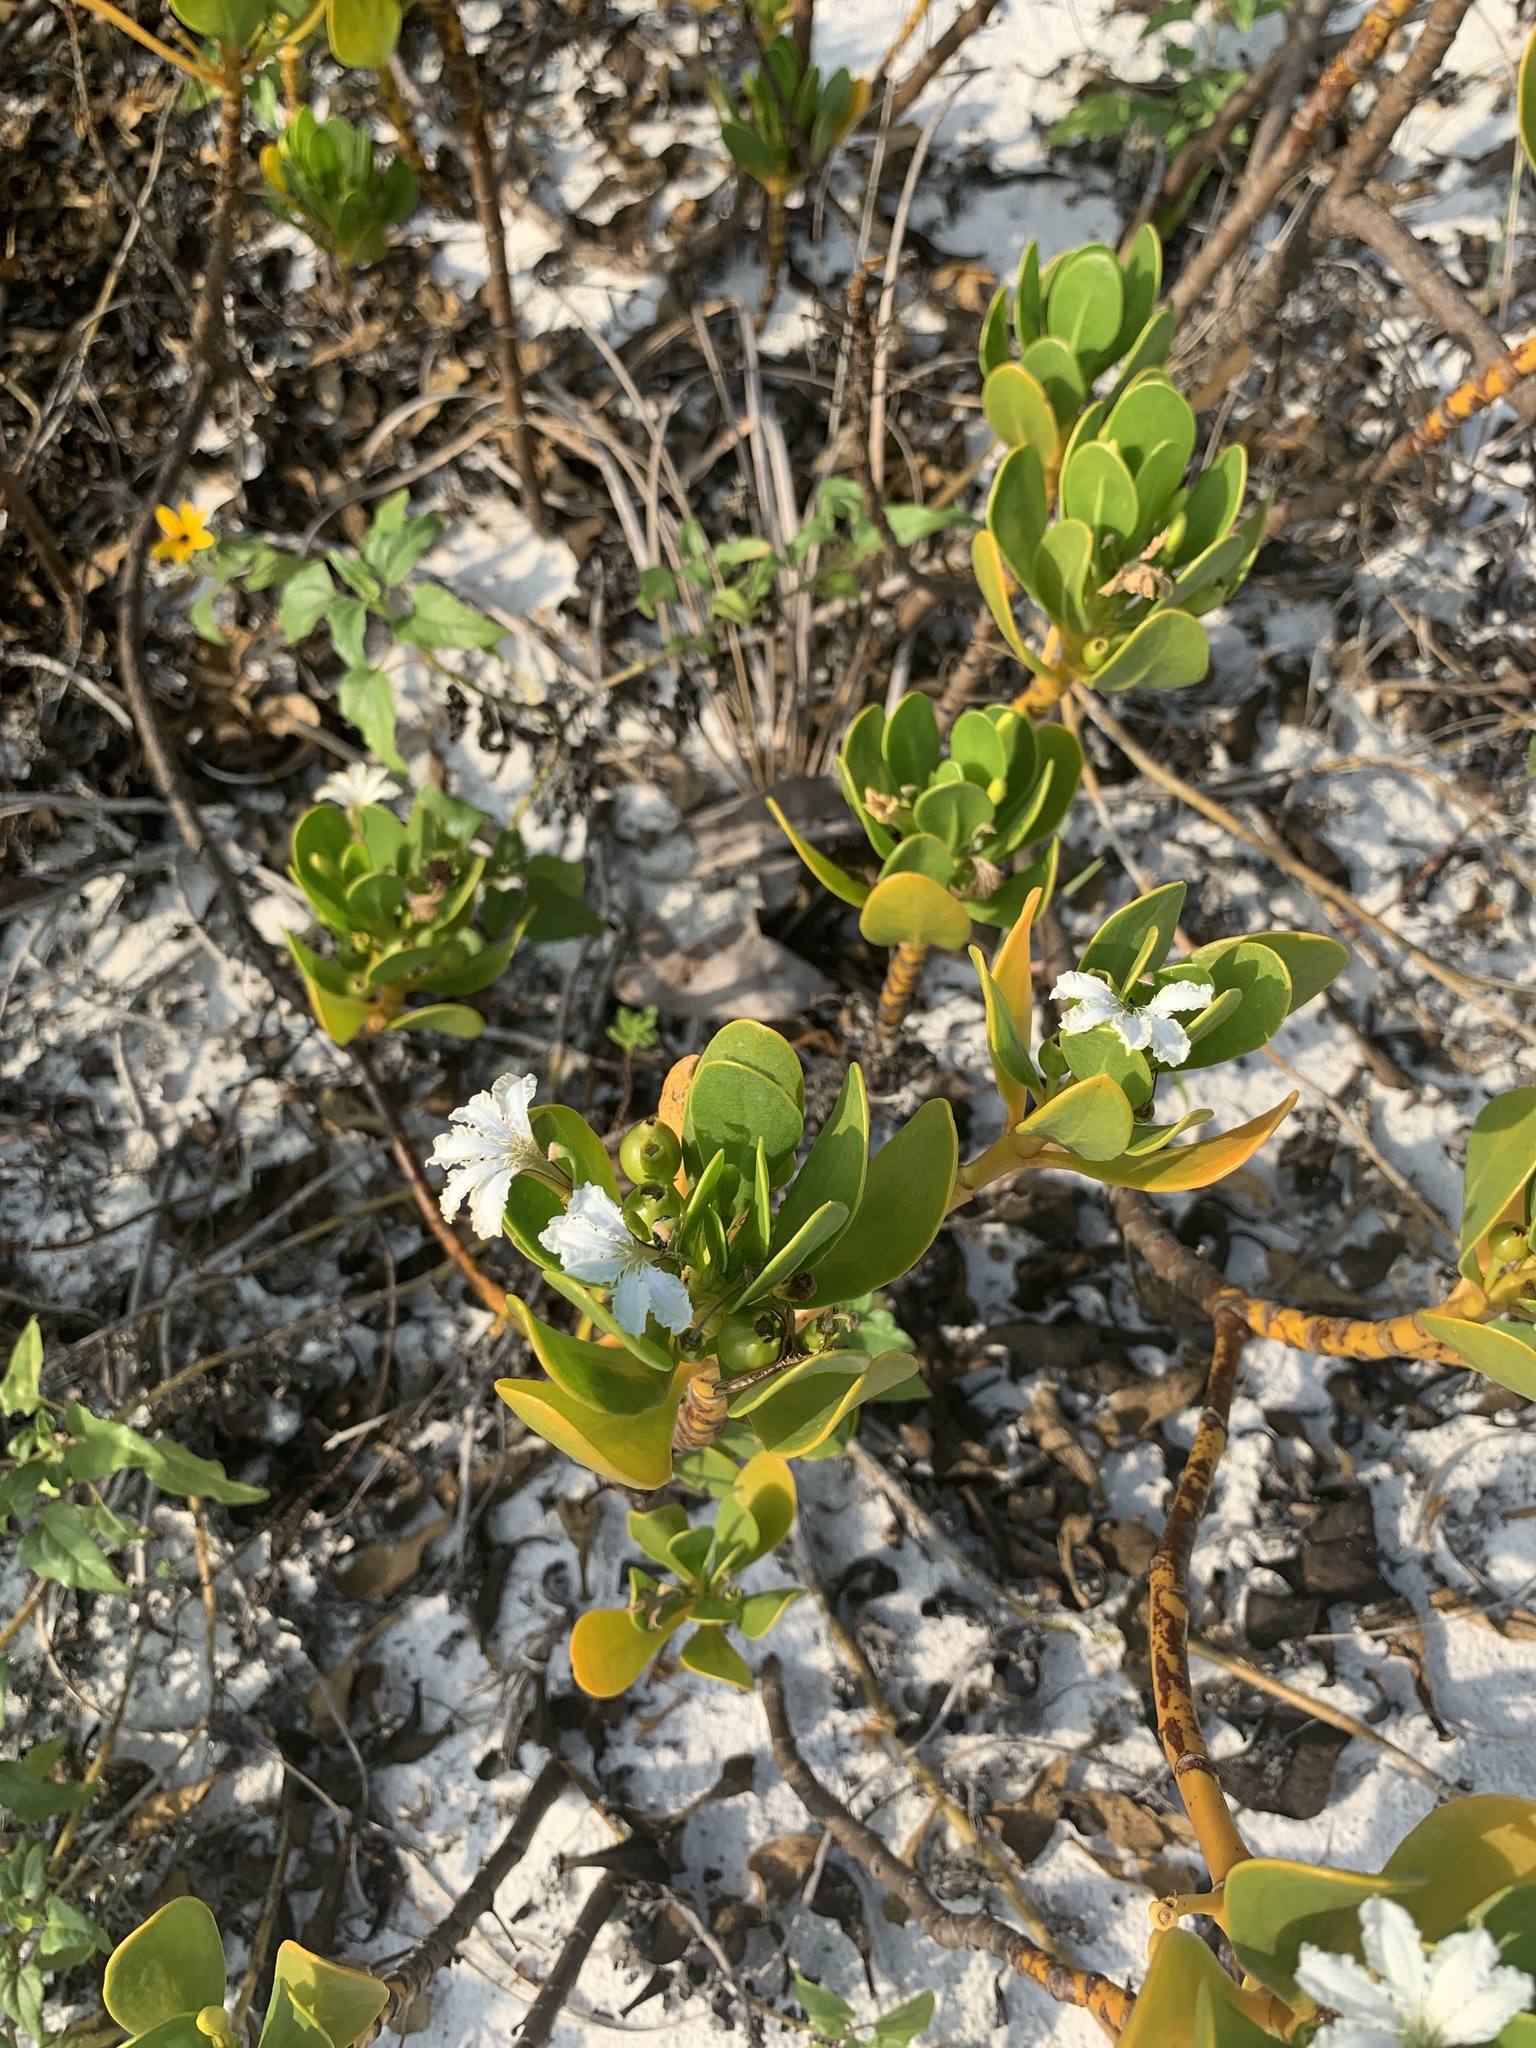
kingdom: Plantae
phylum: Tracheophyta
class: Magnoliopsida
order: Asterales
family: Goodeniaceae
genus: Scaevola
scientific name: Scaevola plumieri
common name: Gull feed
